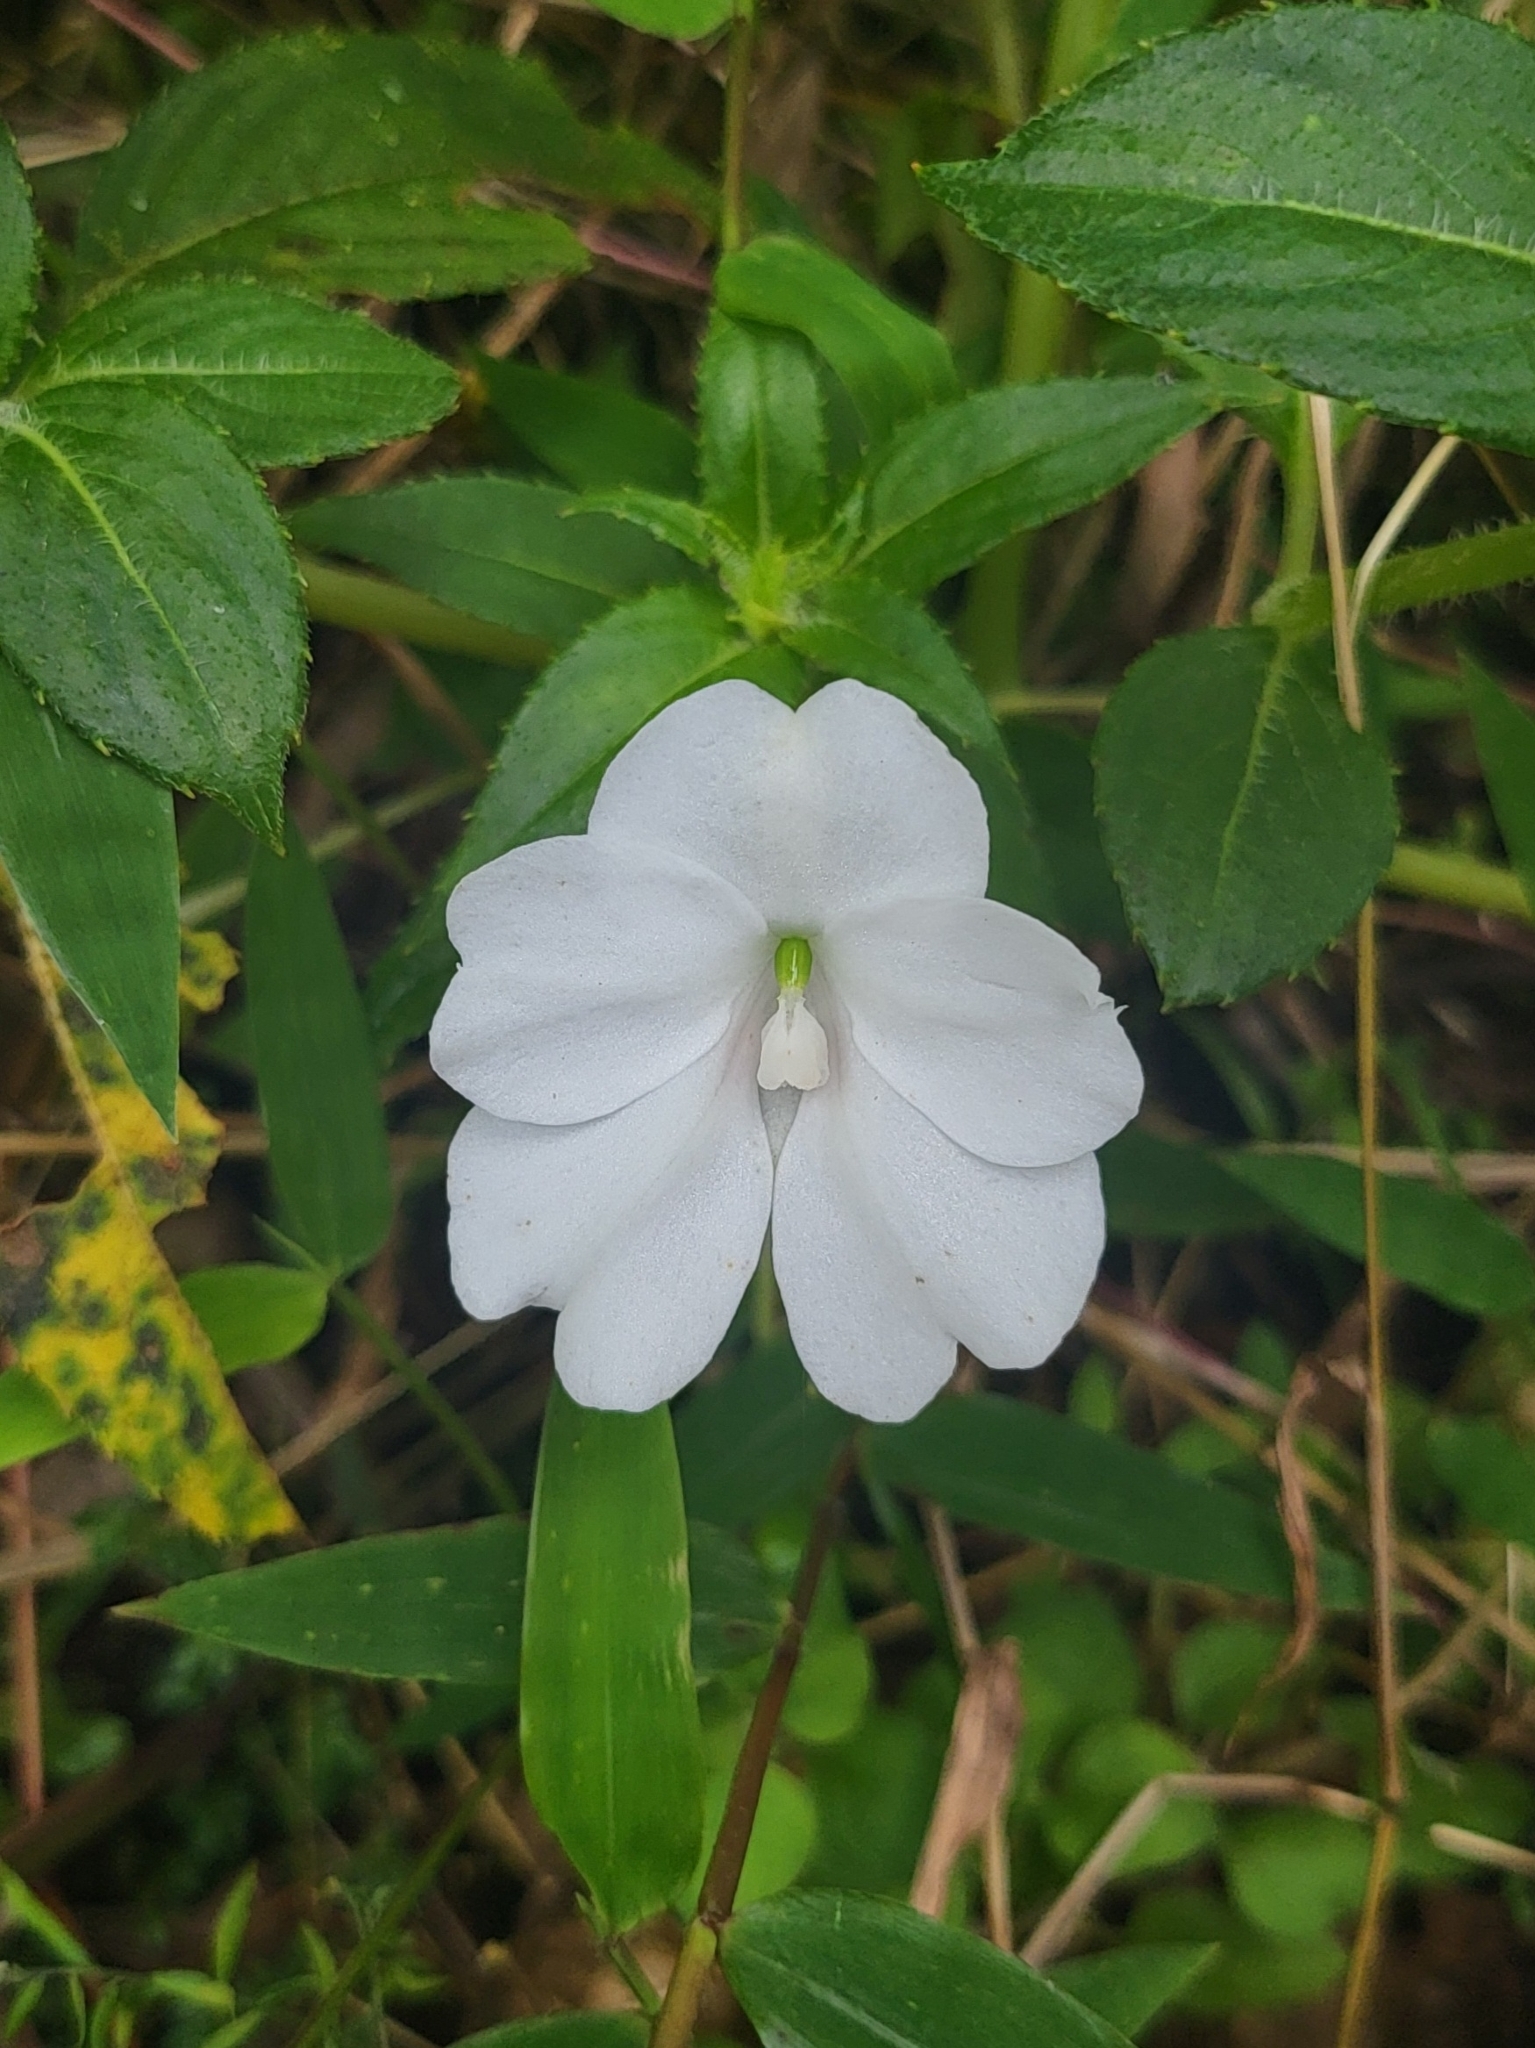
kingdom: Plantae
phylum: Tracheophyta
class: Magnoliopsida
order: Ericales
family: Balsaminaceae
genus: Impatiens
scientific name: Impatiens platypetala
